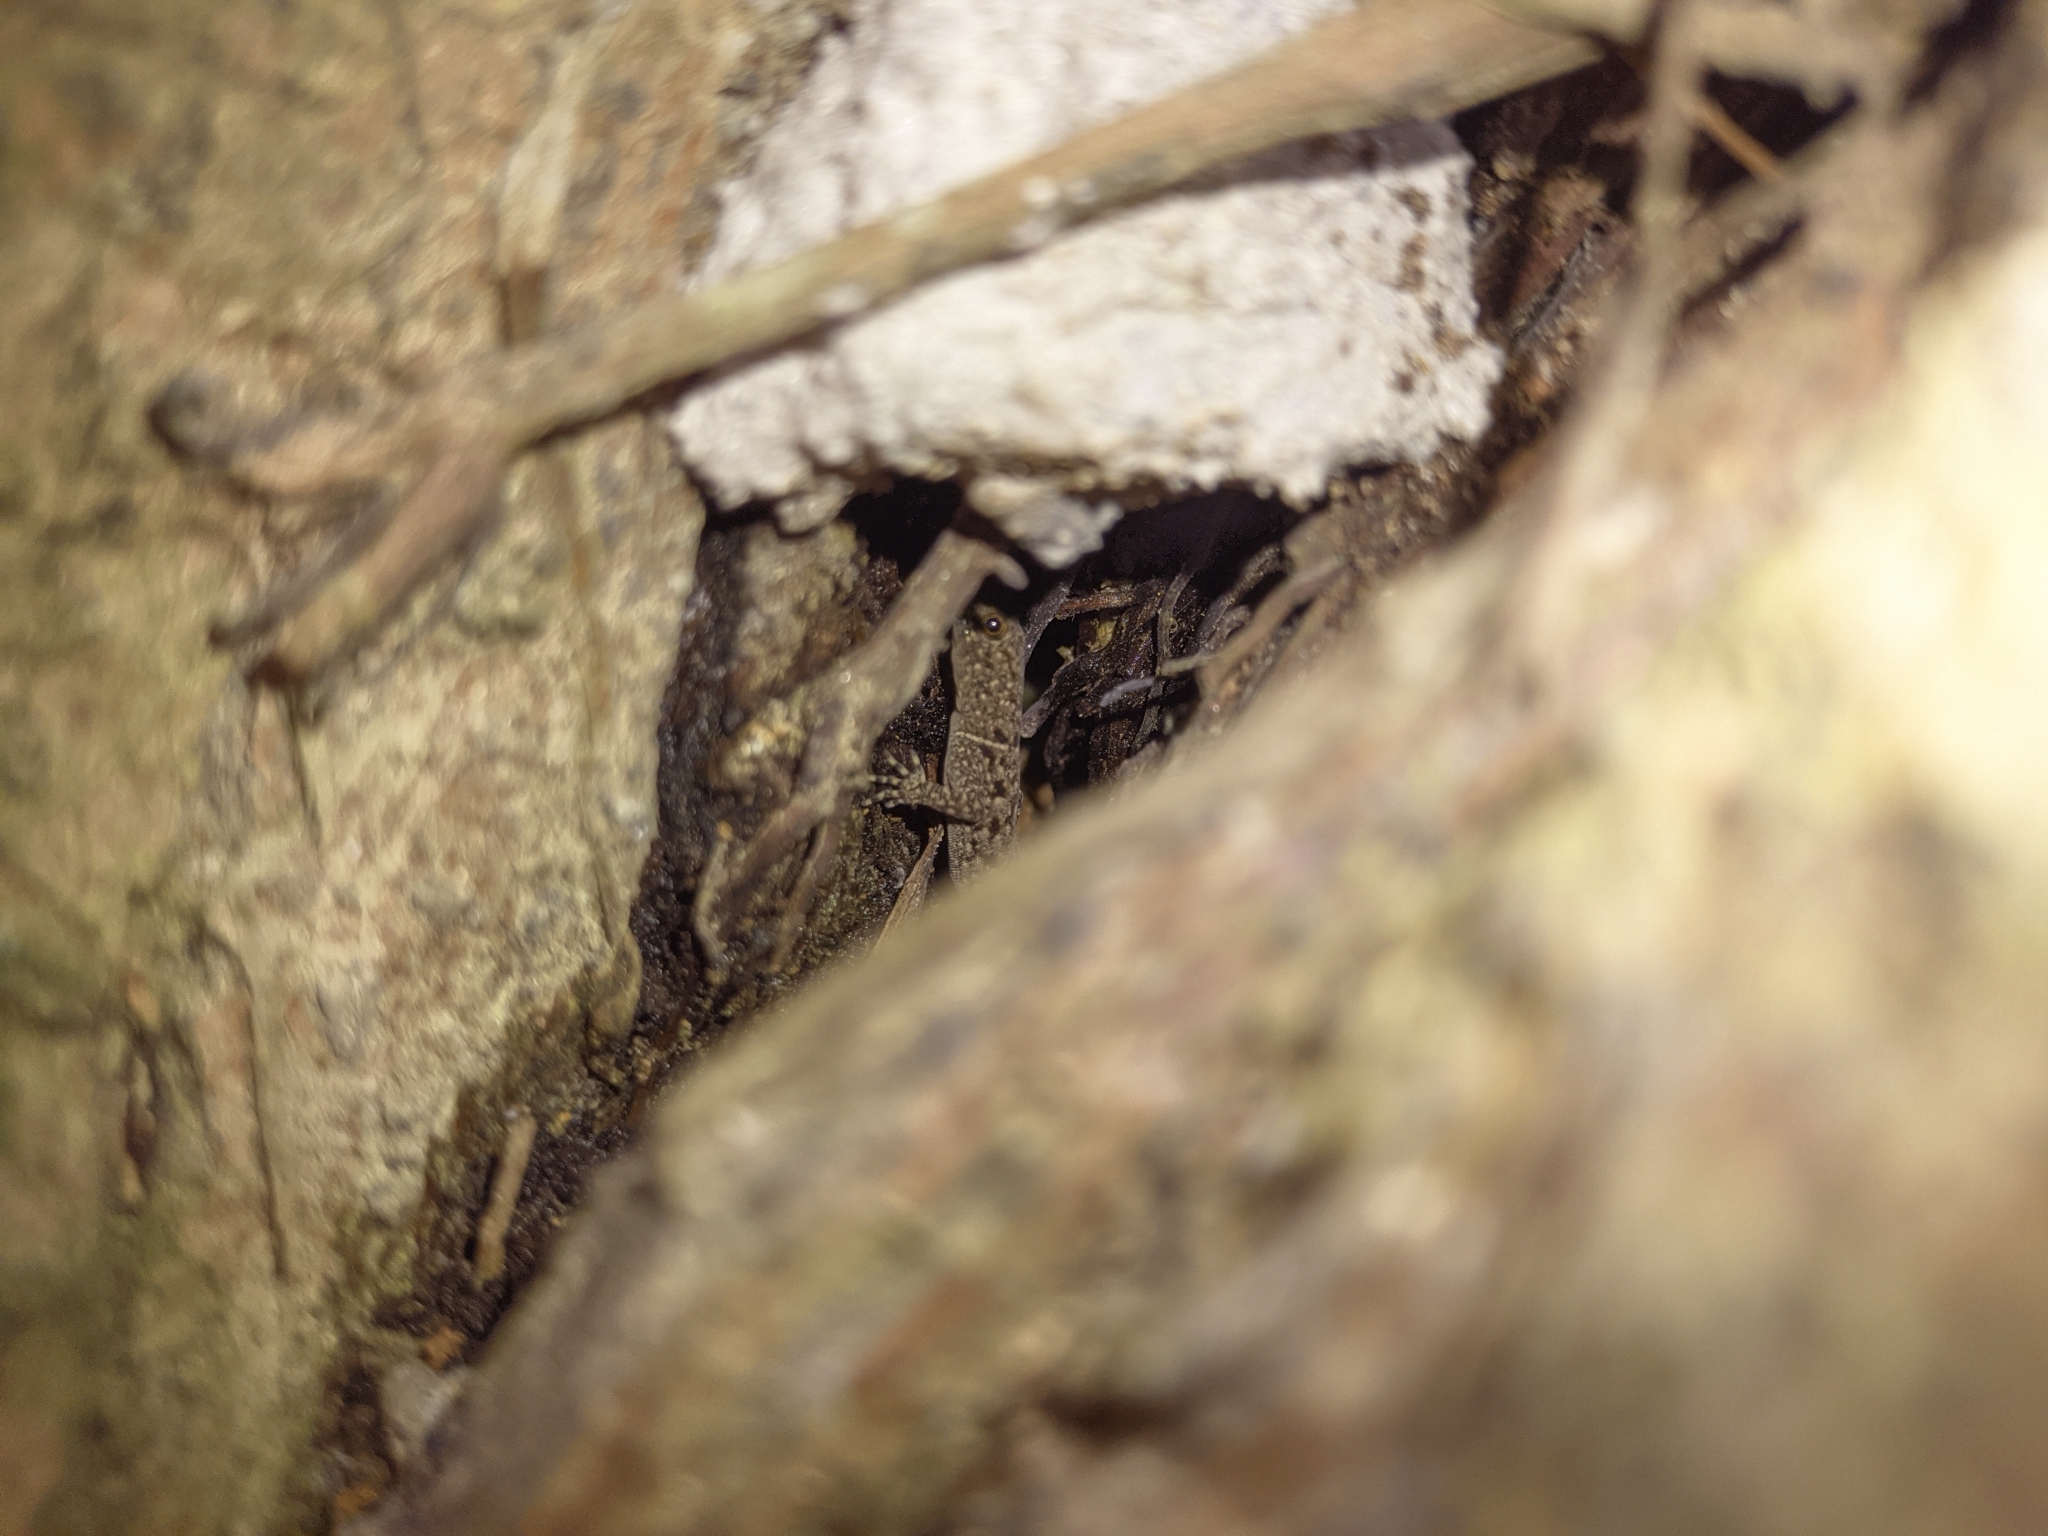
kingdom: Animalia
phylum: Chordata
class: Squamata
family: Sphaerodactylidae
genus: Gonatodes
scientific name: Gonatodes albogularis
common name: Yellow-headed gecko
